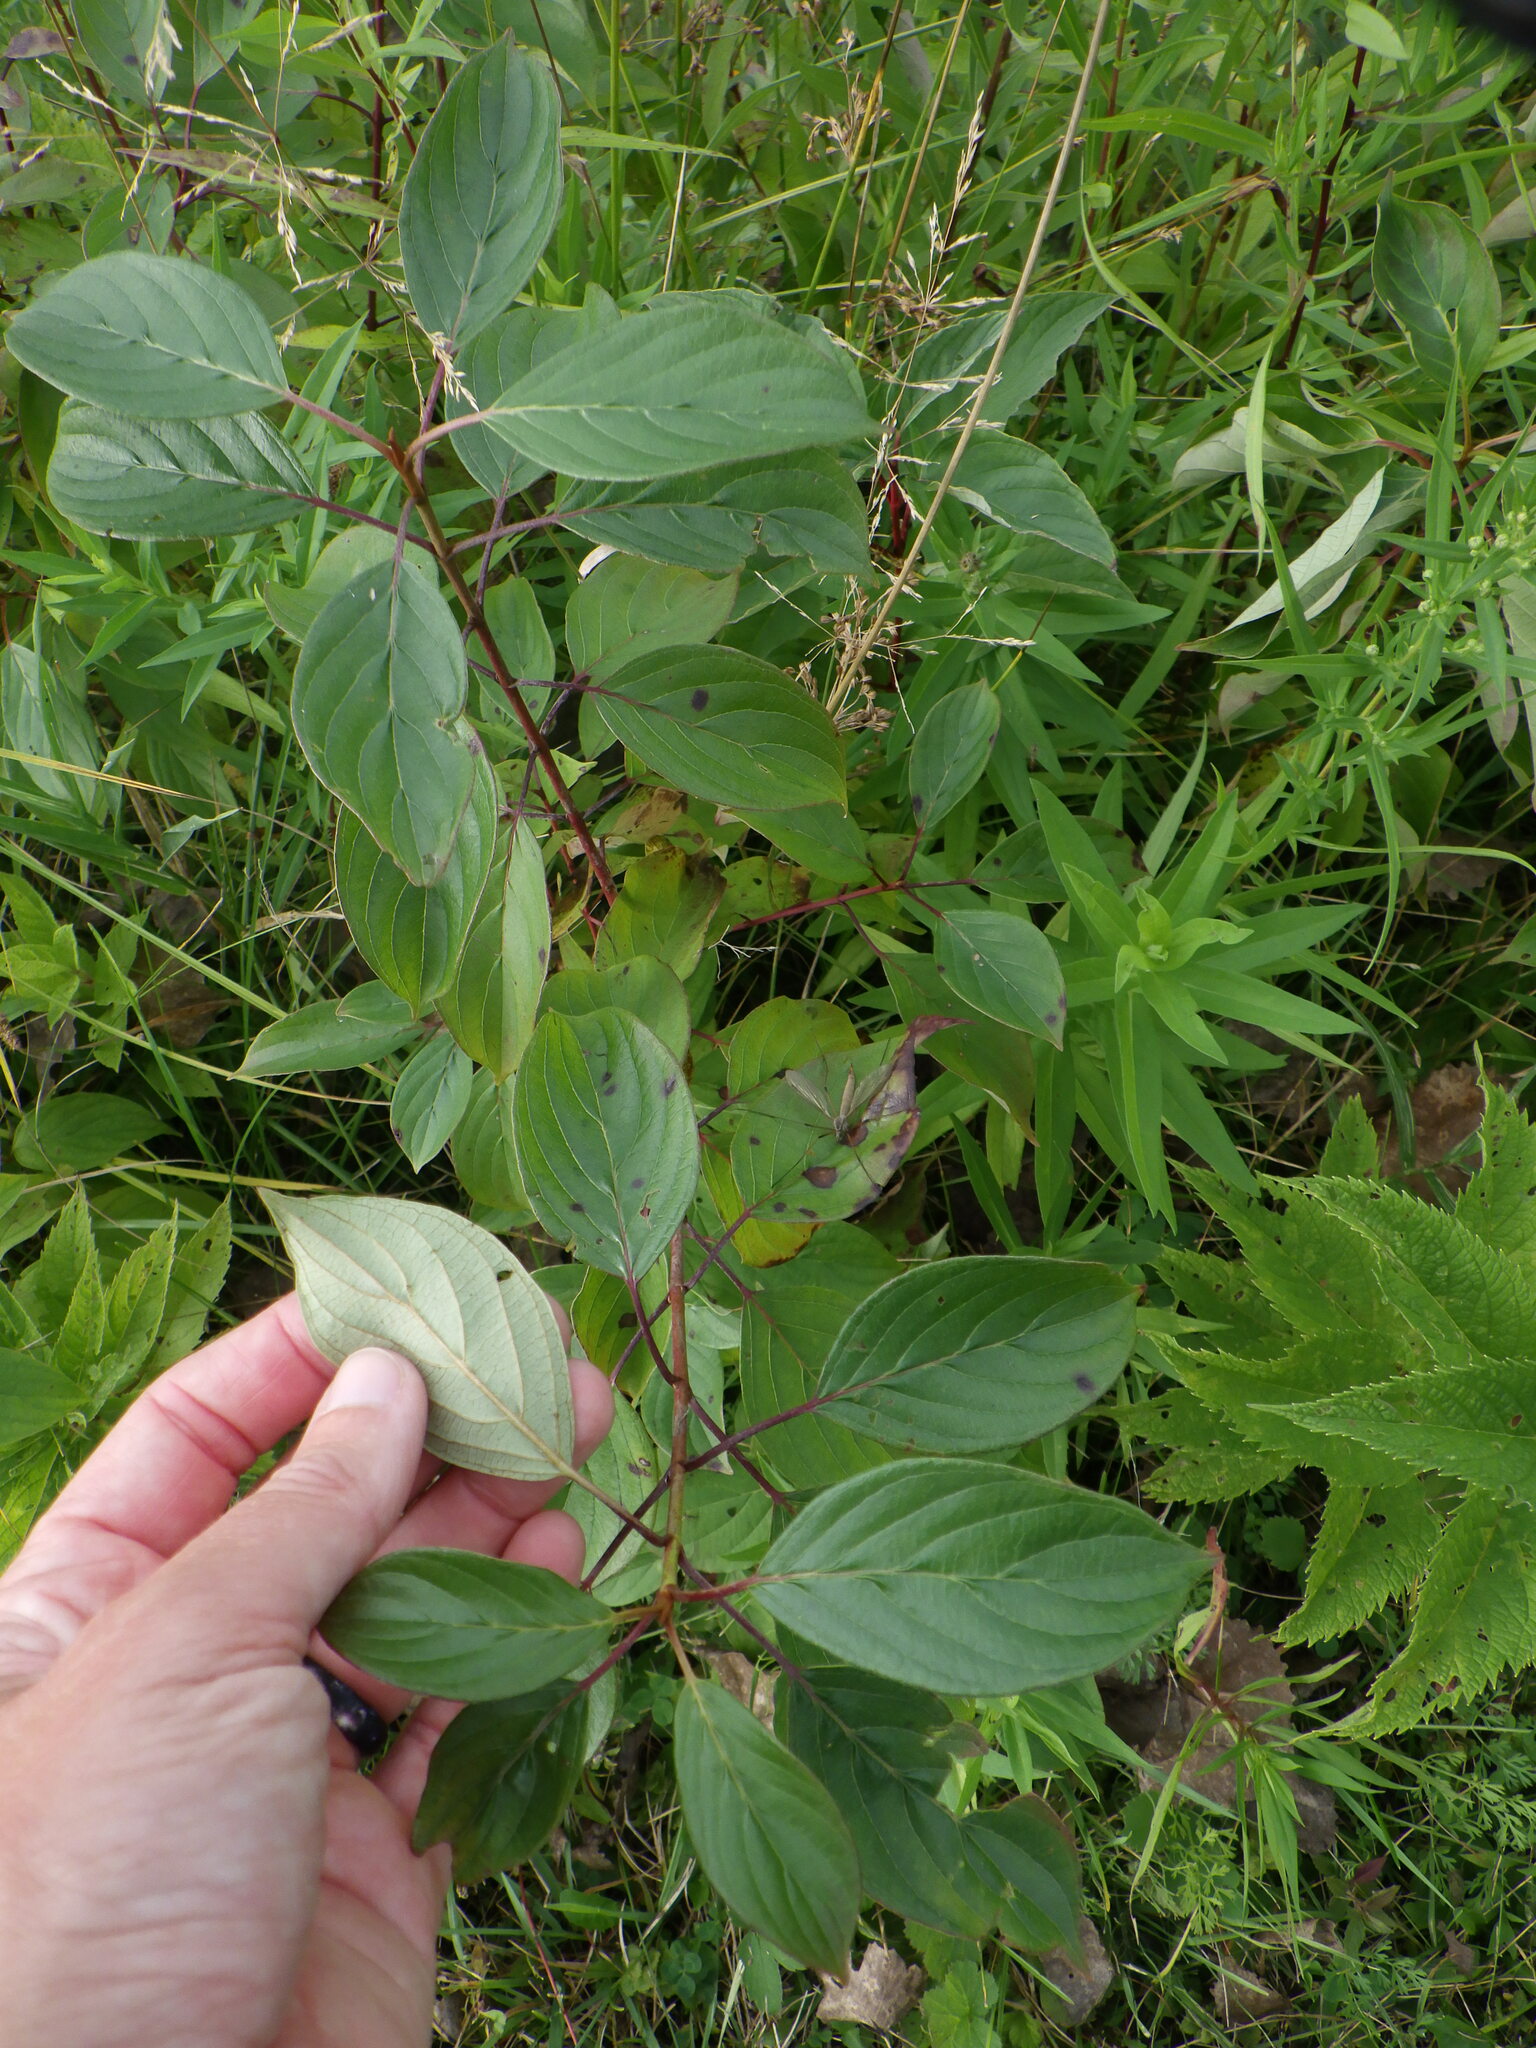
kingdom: Plantae
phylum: Tracheophyta
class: Magnoliopsida
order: Cornales
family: Cornaceae
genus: Cornus
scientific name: Cornus sericea
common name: Red-osier dogwood
